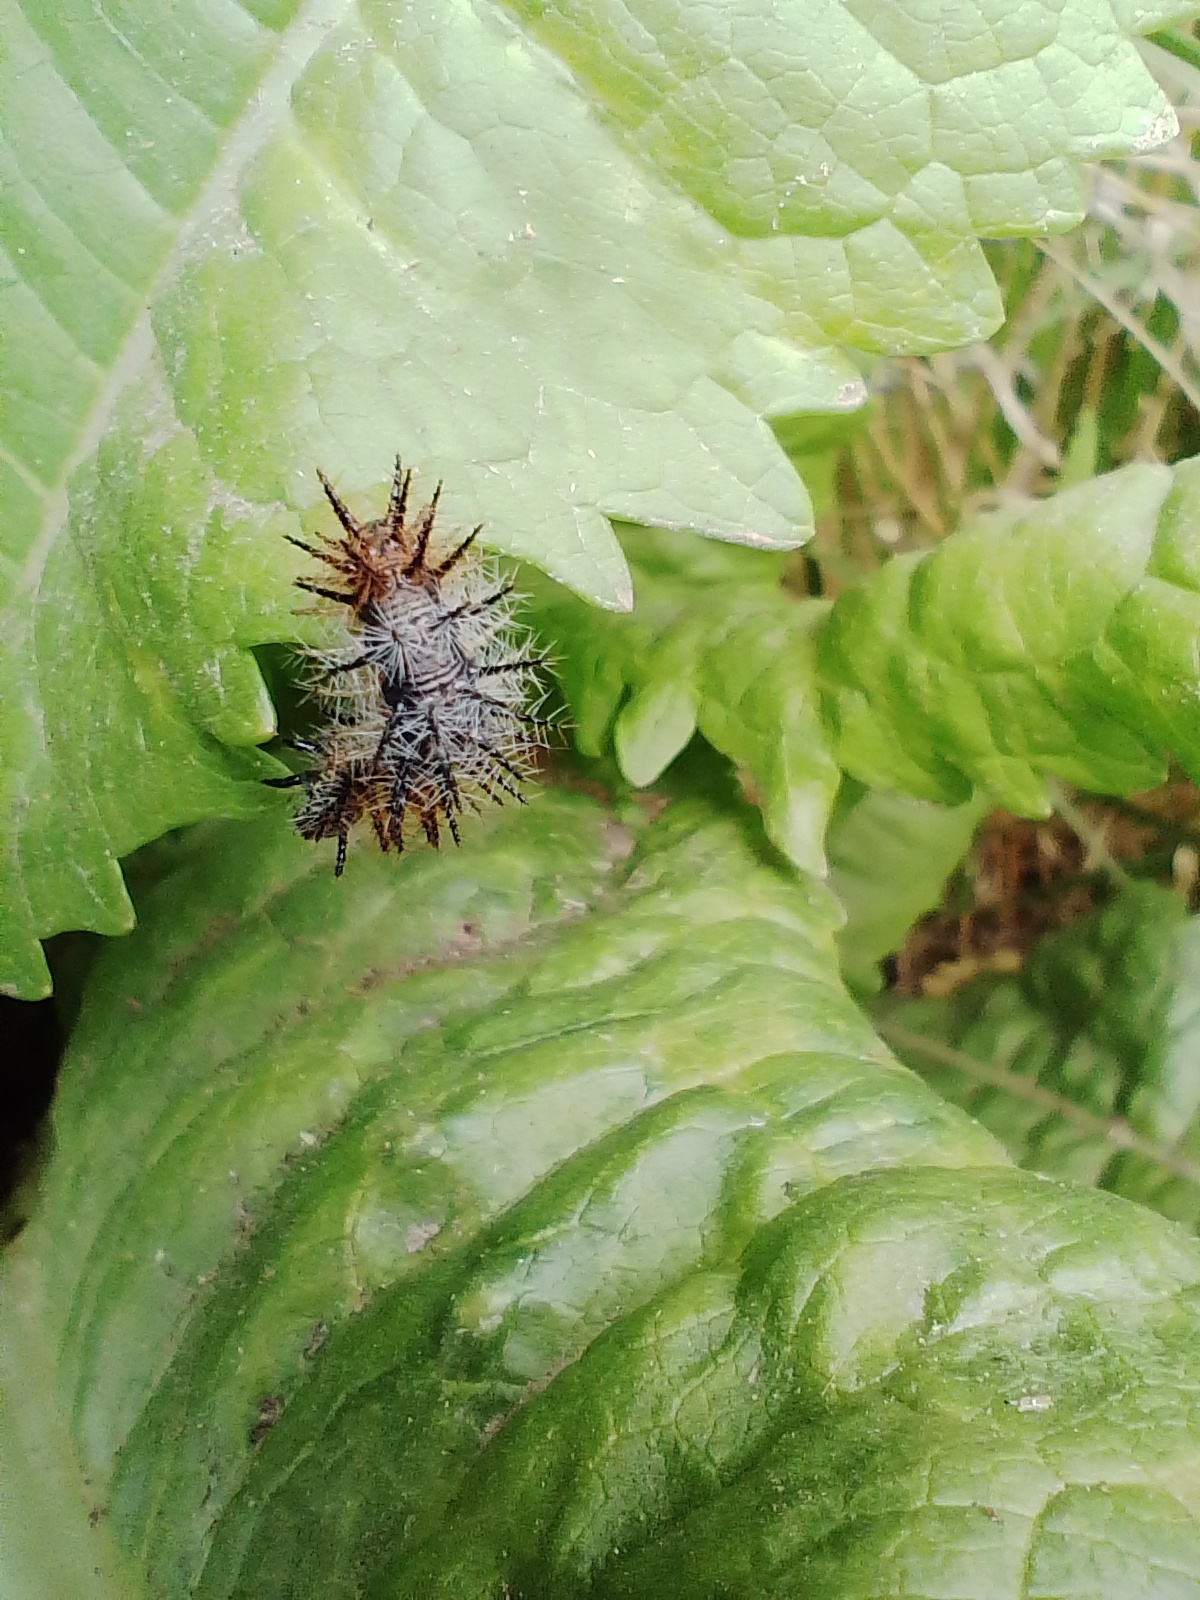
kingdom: Plantae
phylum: Tracheophyta
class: Magnoliopsida
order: Dipsacales
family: Caprifoliaceae
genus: Dipsacus
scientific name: Dipsacus fullonum
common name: Teasel
